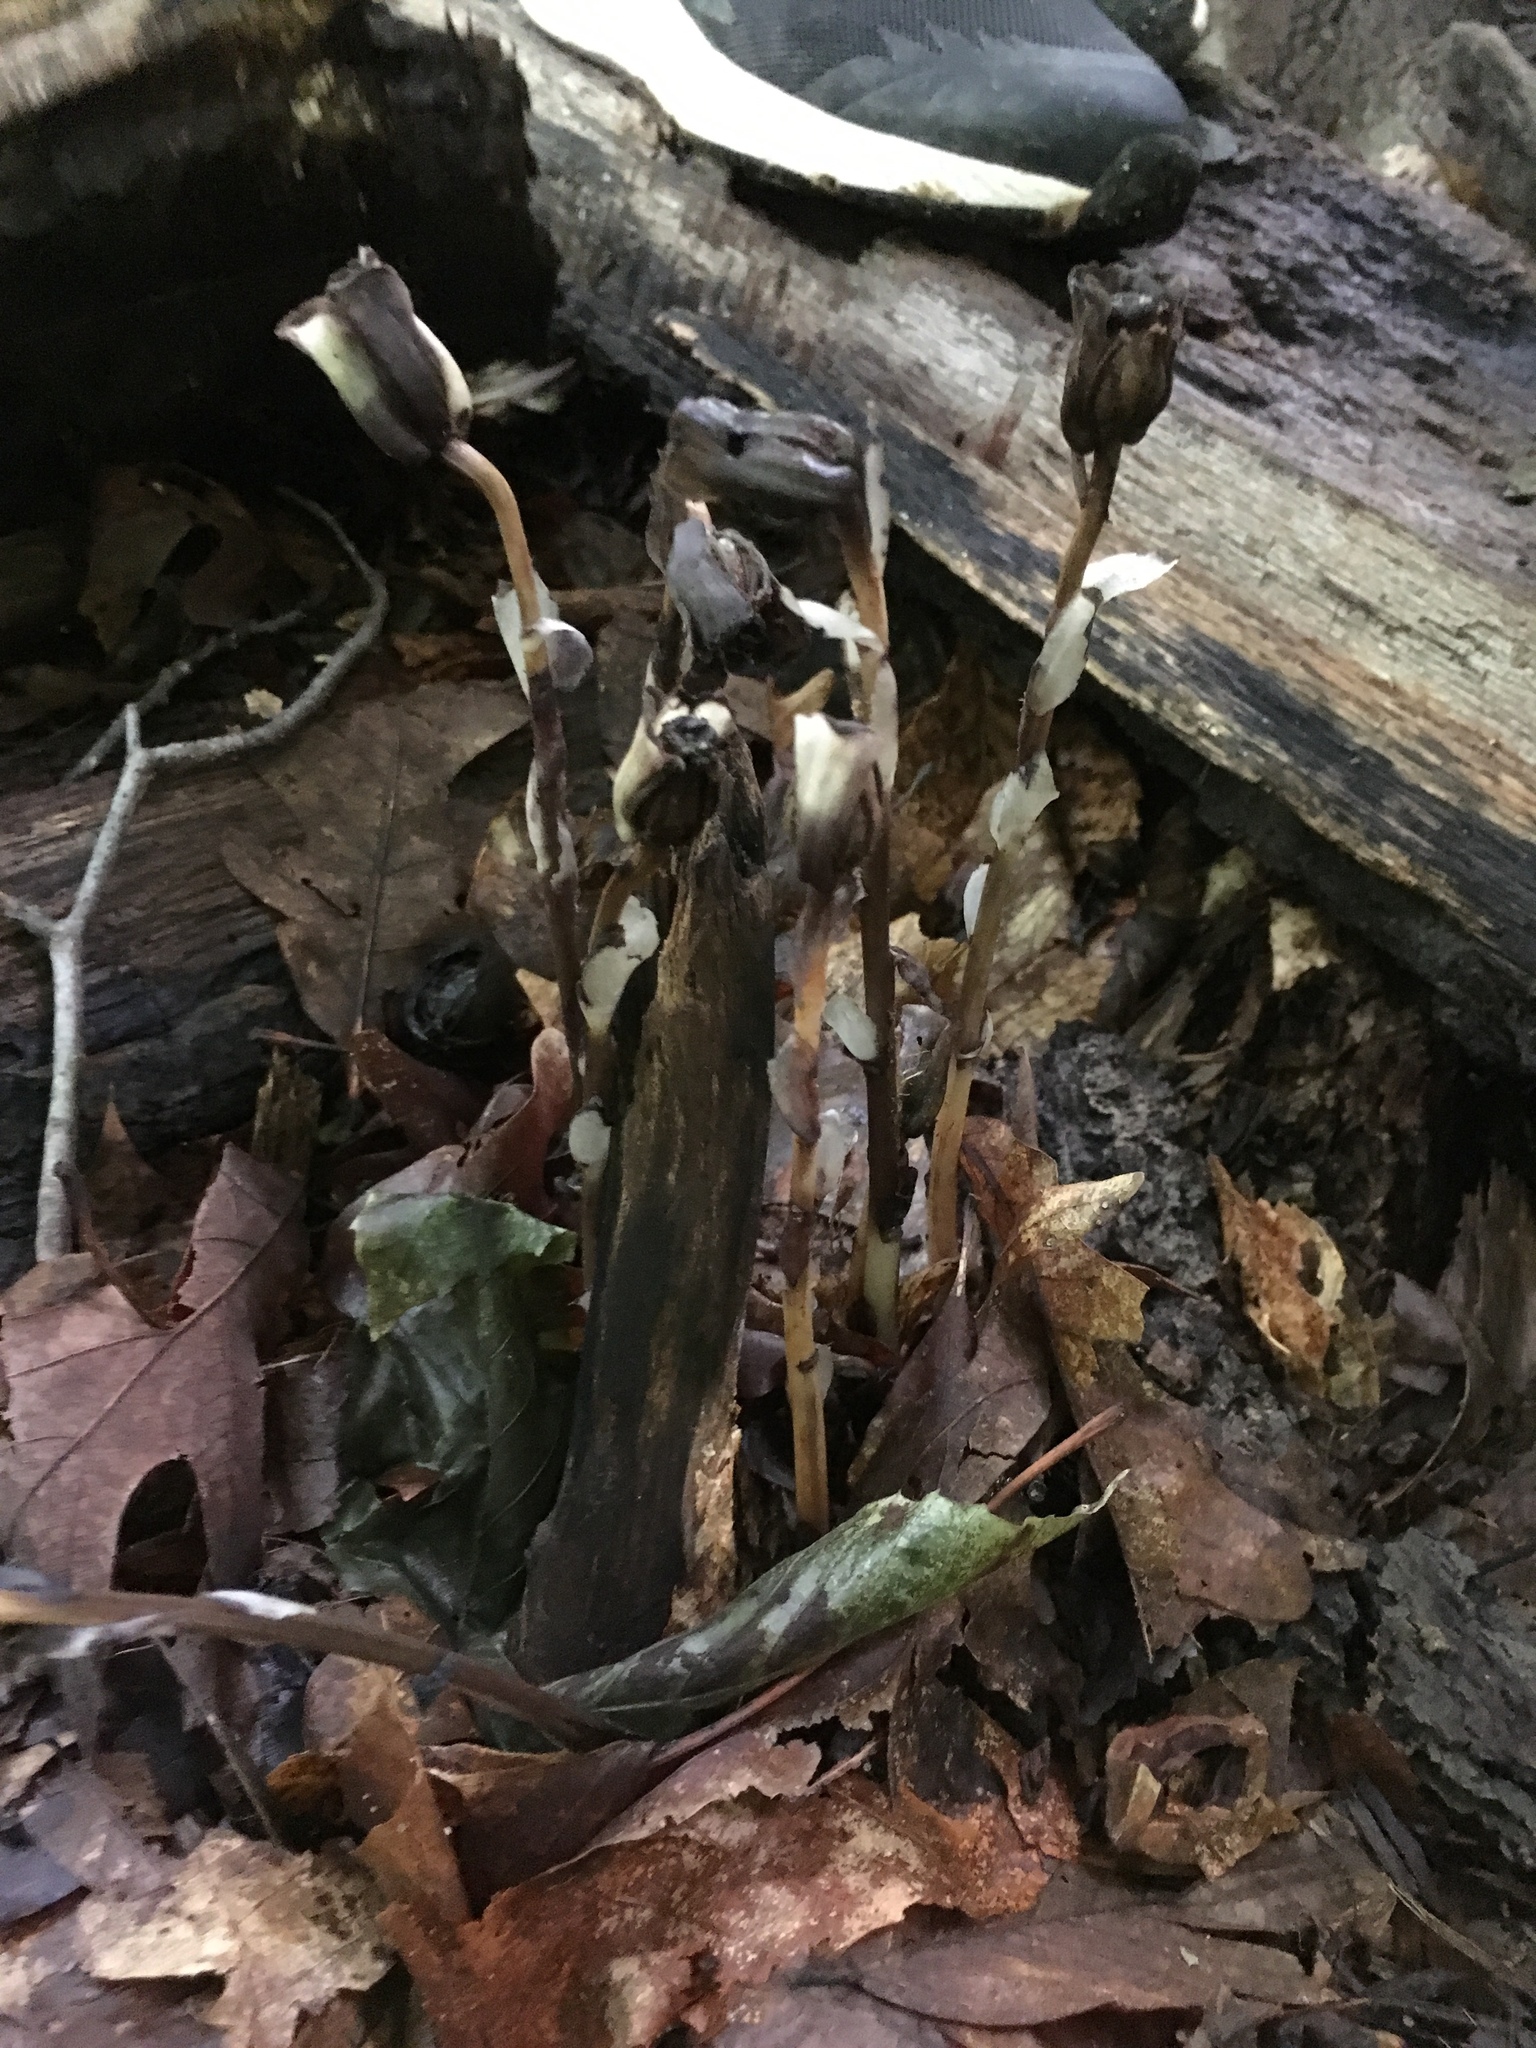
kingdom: Plantae
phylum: Tracheophyta
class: Magnoliopsida
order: Ericales
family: Ericaceae
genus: Monotropa
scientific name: Monotropa uniflora
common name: Convulsion root
